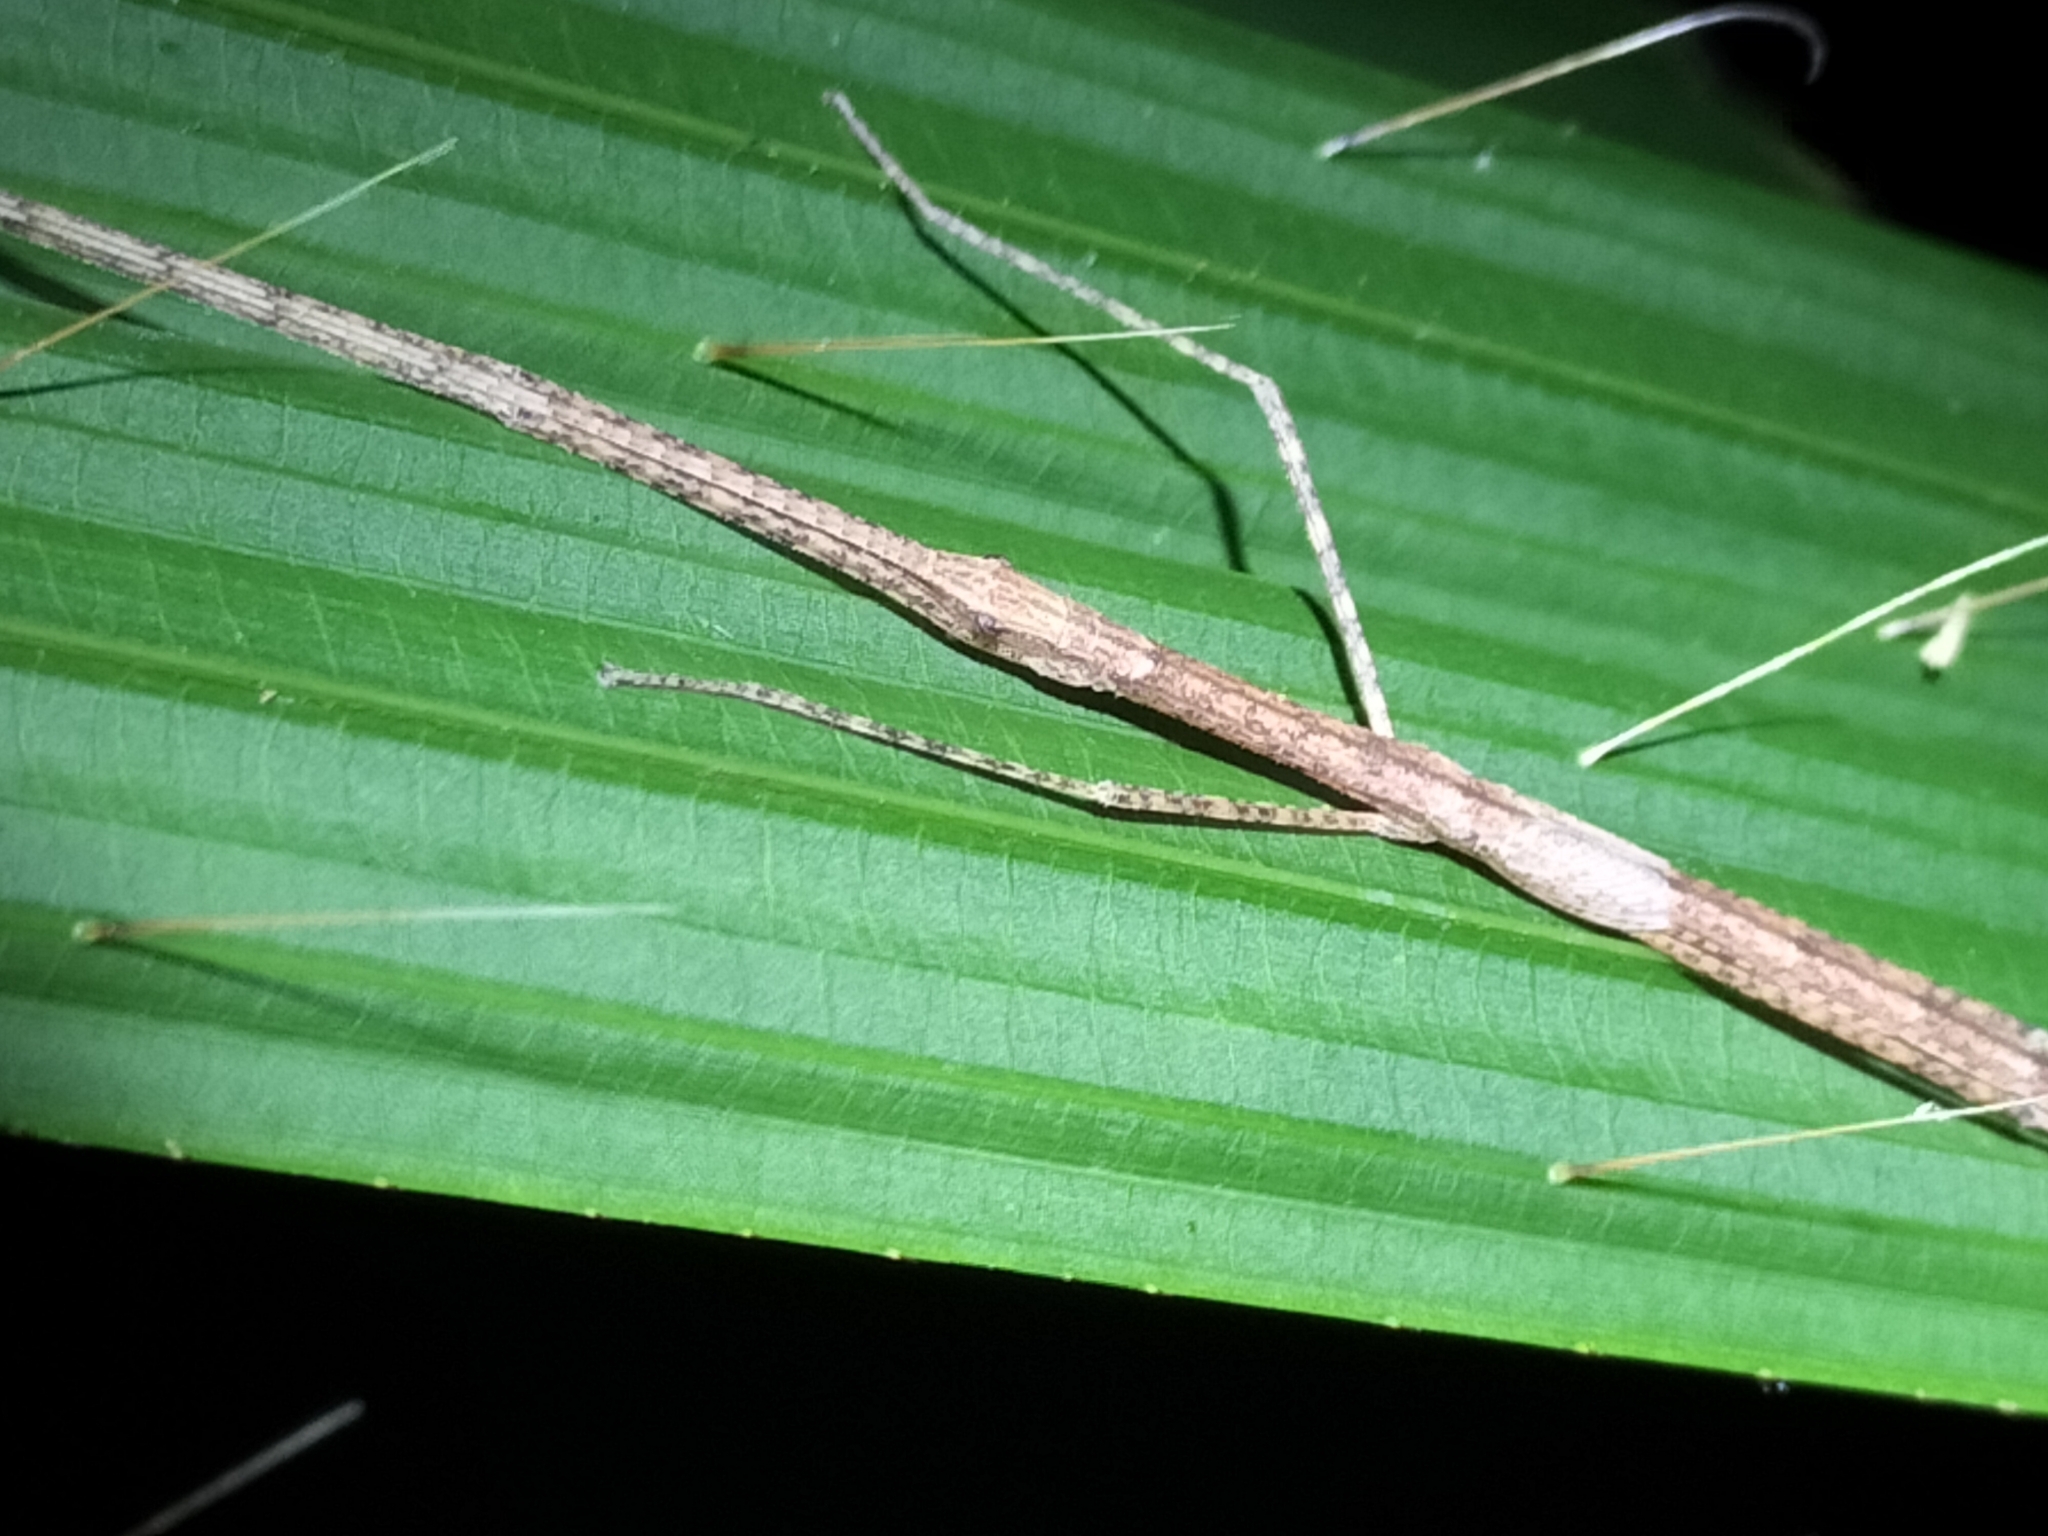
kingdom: Animalia
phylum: Arthropoda
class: Insecta
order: Phasmida
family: Lonchodidae
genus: Sipyloidea
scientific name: Sipyloidea larryi
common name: Hurricane larry stick-insect
